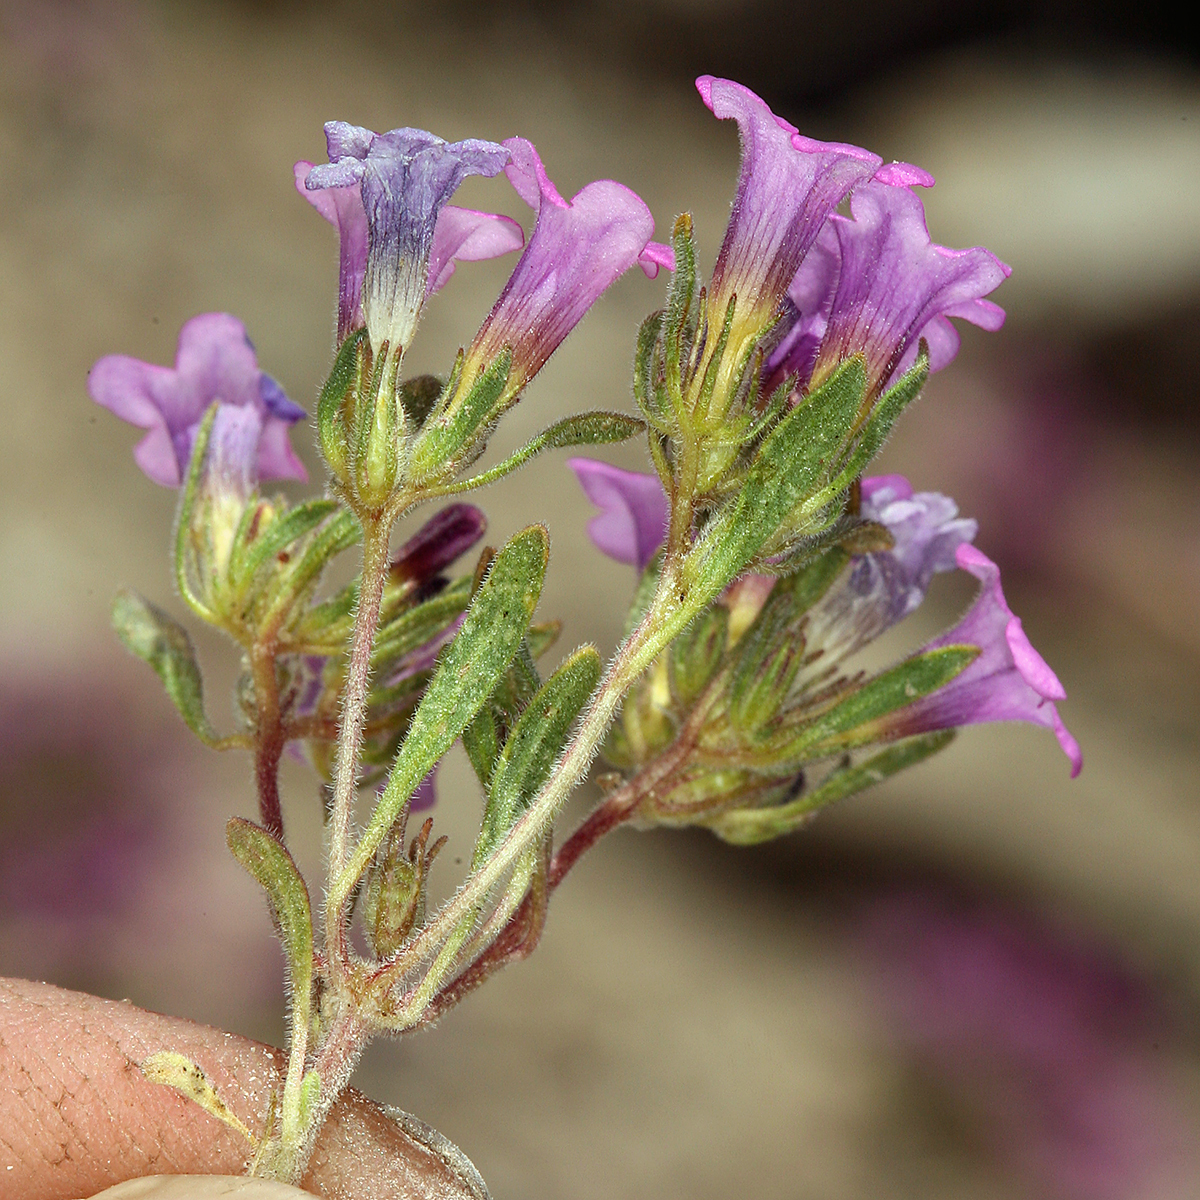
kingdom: Plantae
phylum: Tracheophyta
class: Magnoliopsida
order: Boraginales
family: Namaceae
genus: Nama
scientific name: Nama demissa
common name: Leafy nama
